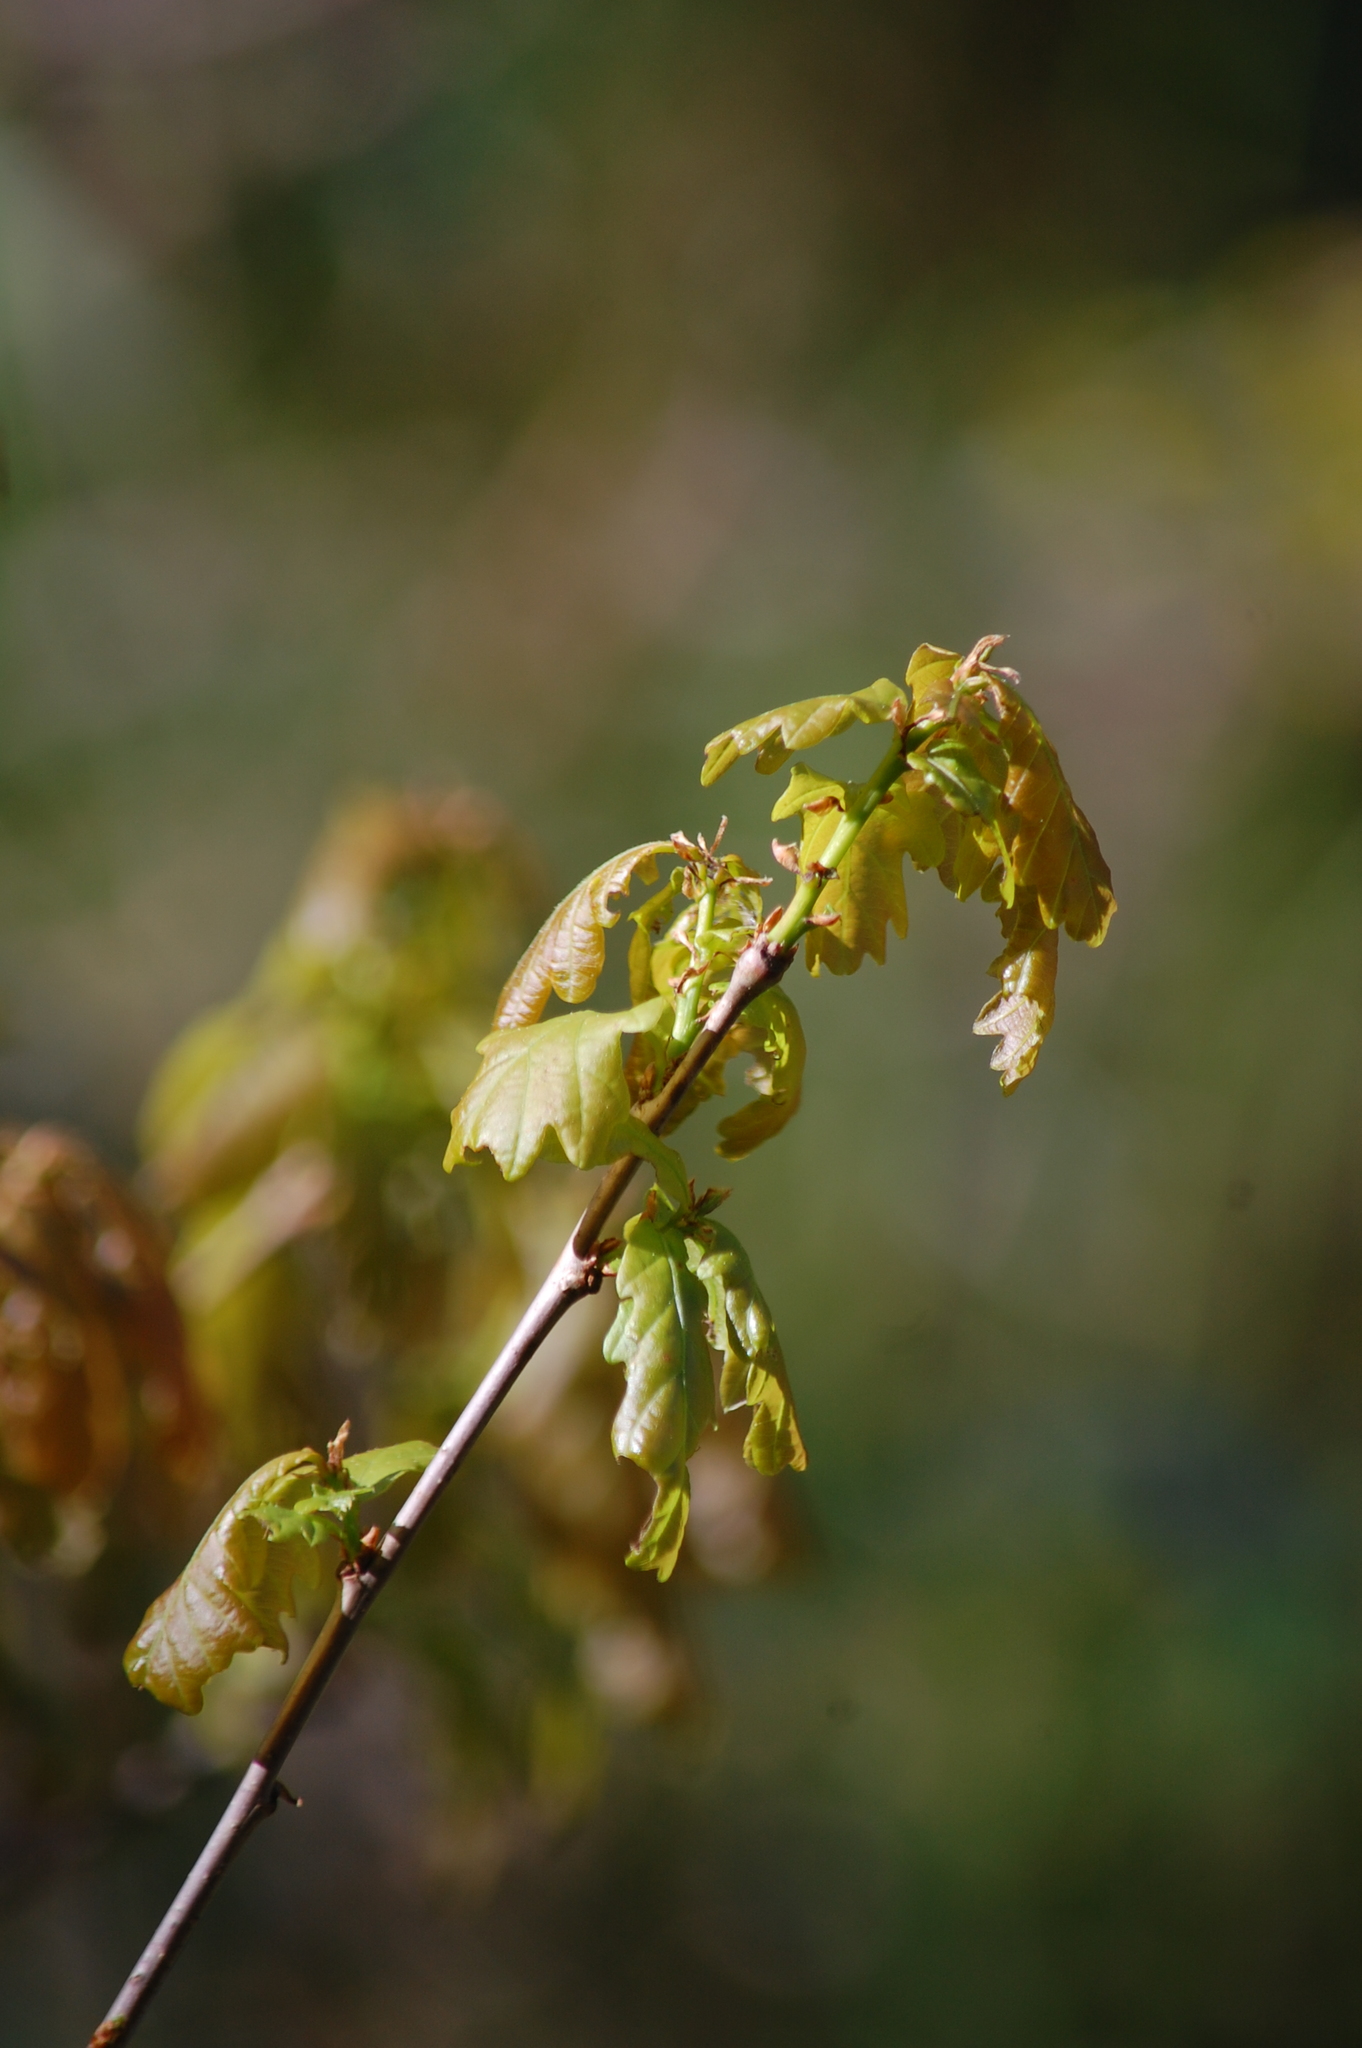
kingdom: Plantae
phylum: Tracheophyta
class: Magnoliopsida
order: Fagales
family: Fagaceae
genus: Quercus
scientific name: Quercus robur
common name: Pedunculate oak
